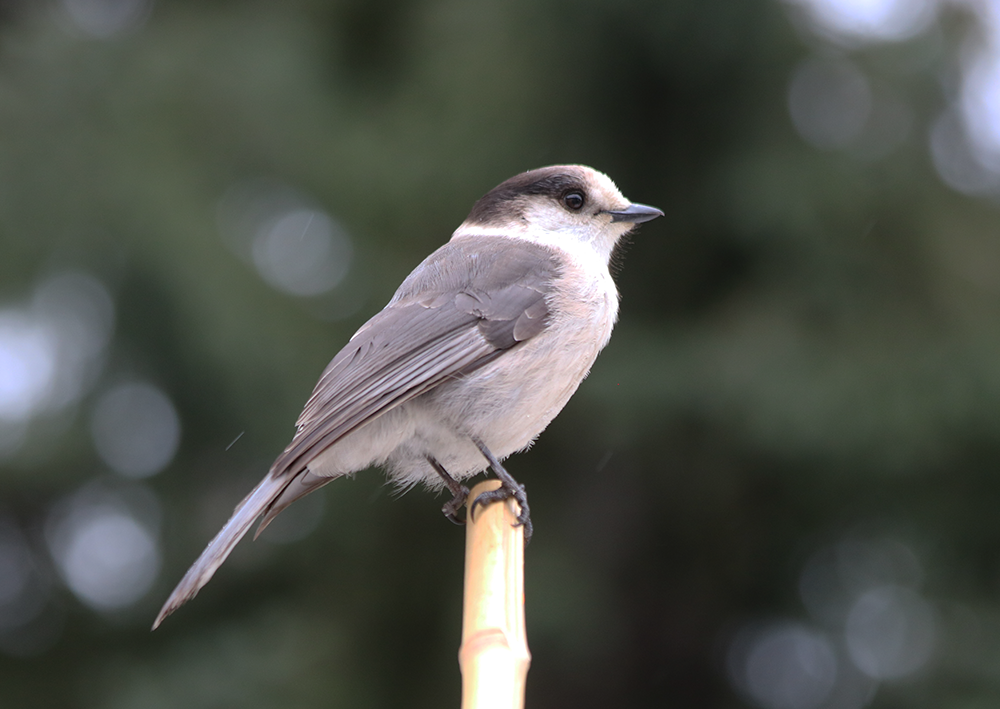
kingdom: Animalia
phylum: Chordata
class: Aves
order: Passeriformes
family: Corvidae
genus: Perisoreus
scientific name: Perisoreus canadensis
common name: Gray jay
